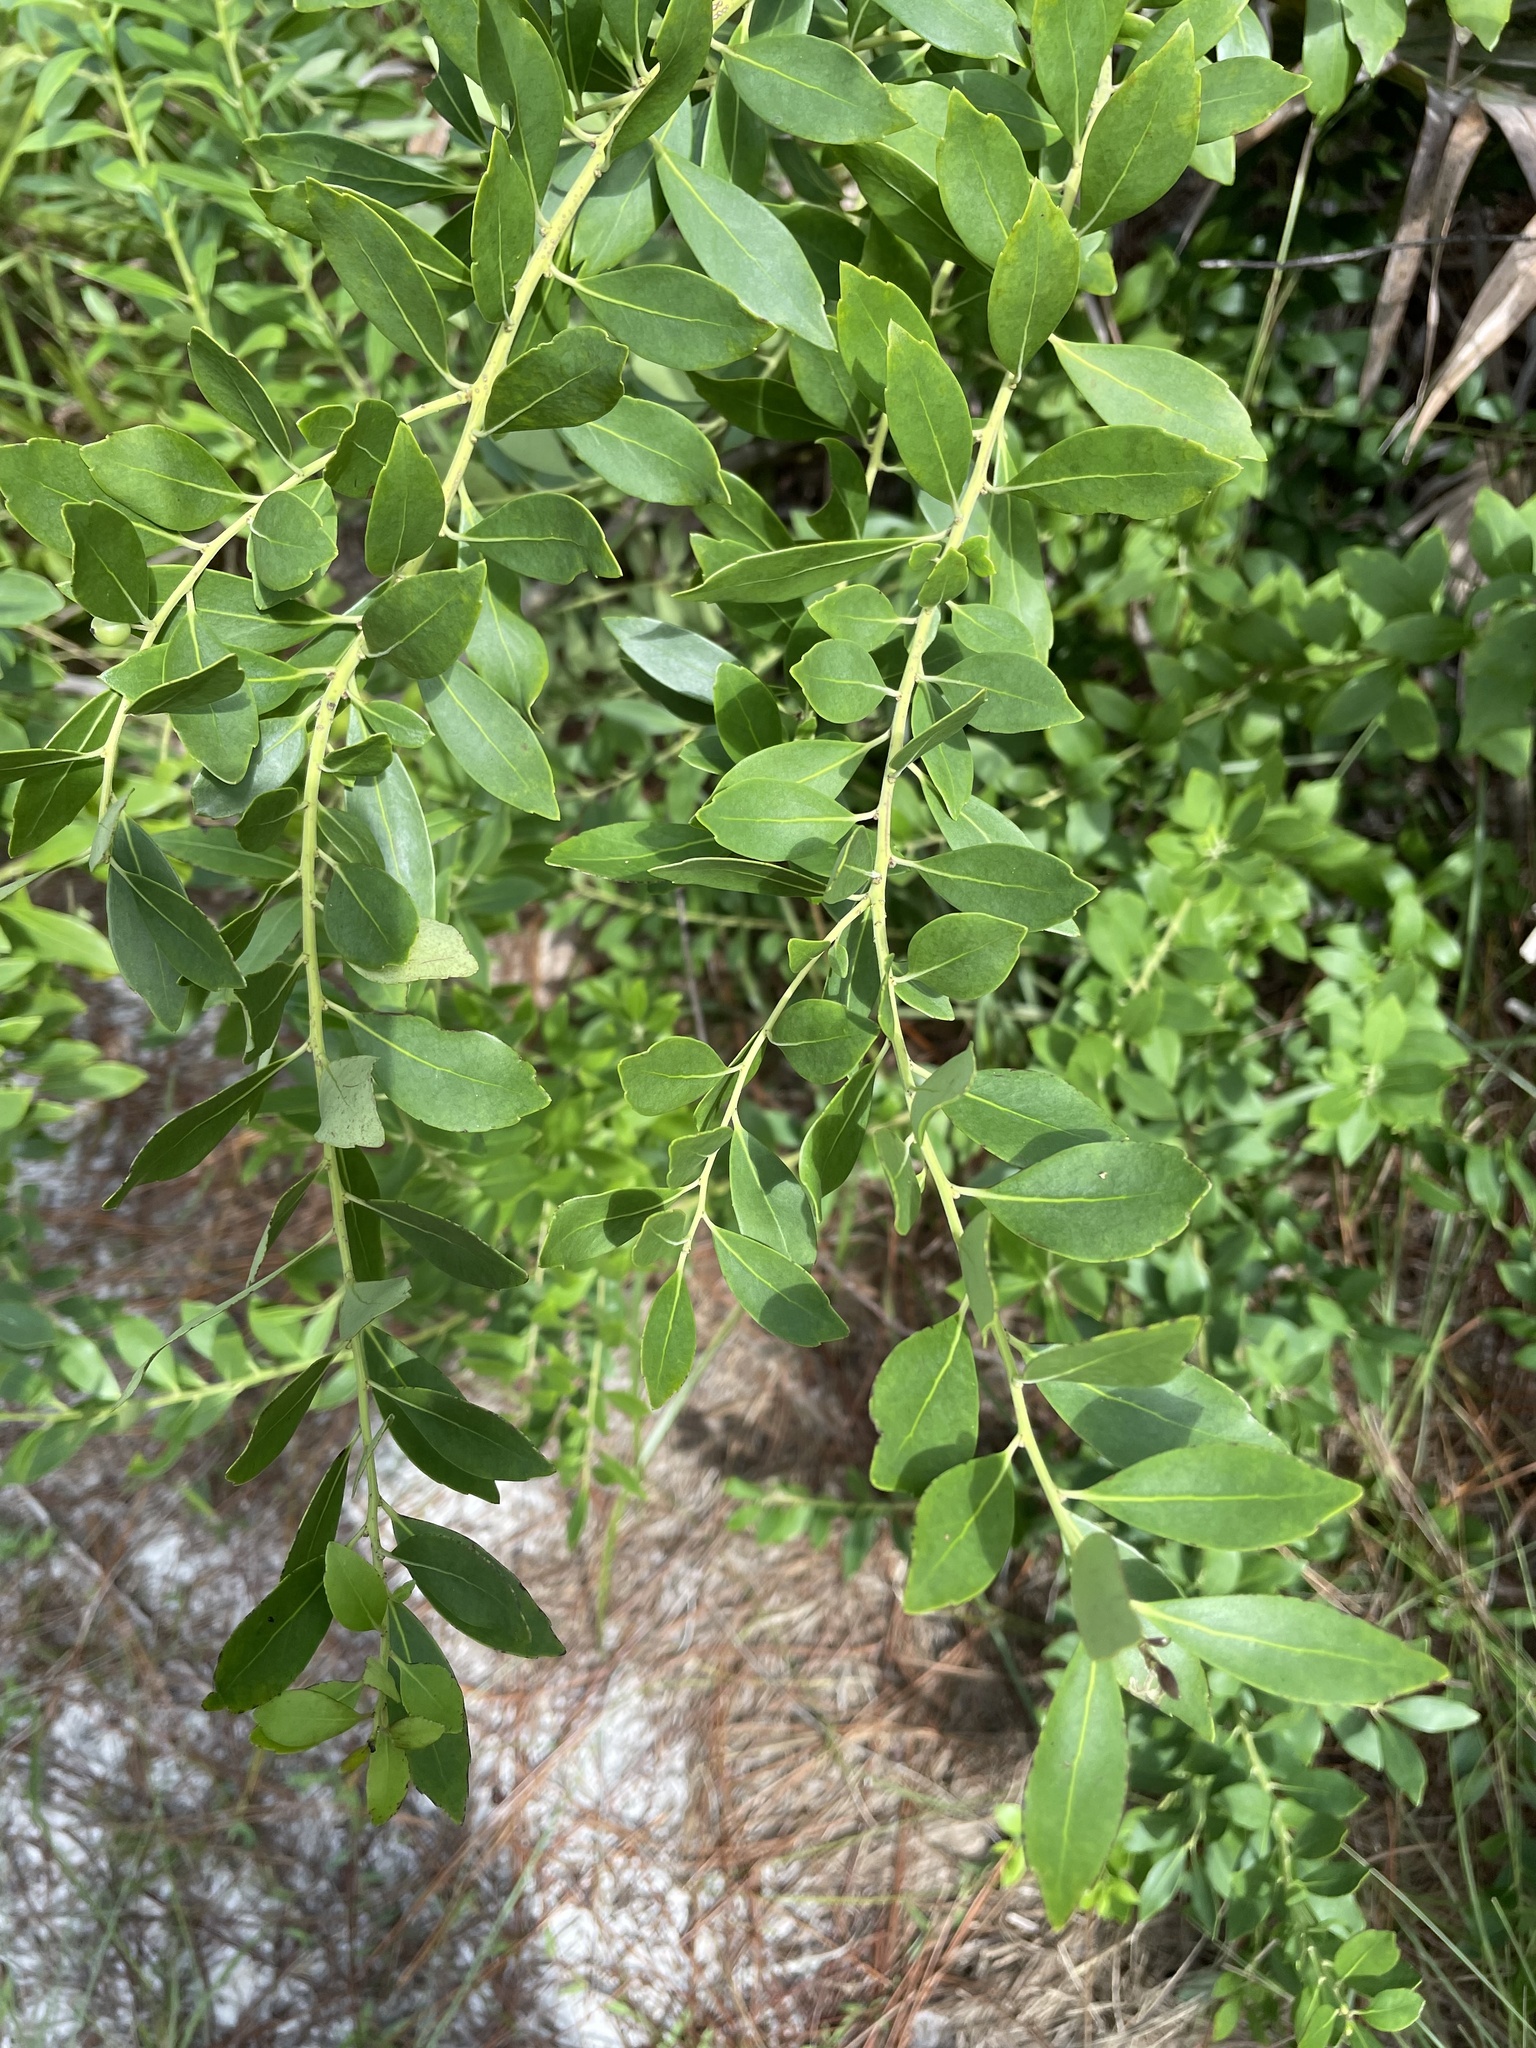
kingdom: Plantae
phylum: Tracheophyta
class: Magnoliopsida
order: Aquifoliales
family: Aquifoliaceae
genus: Ilex
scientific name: Ilex glabra
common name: Bitter gallberry
